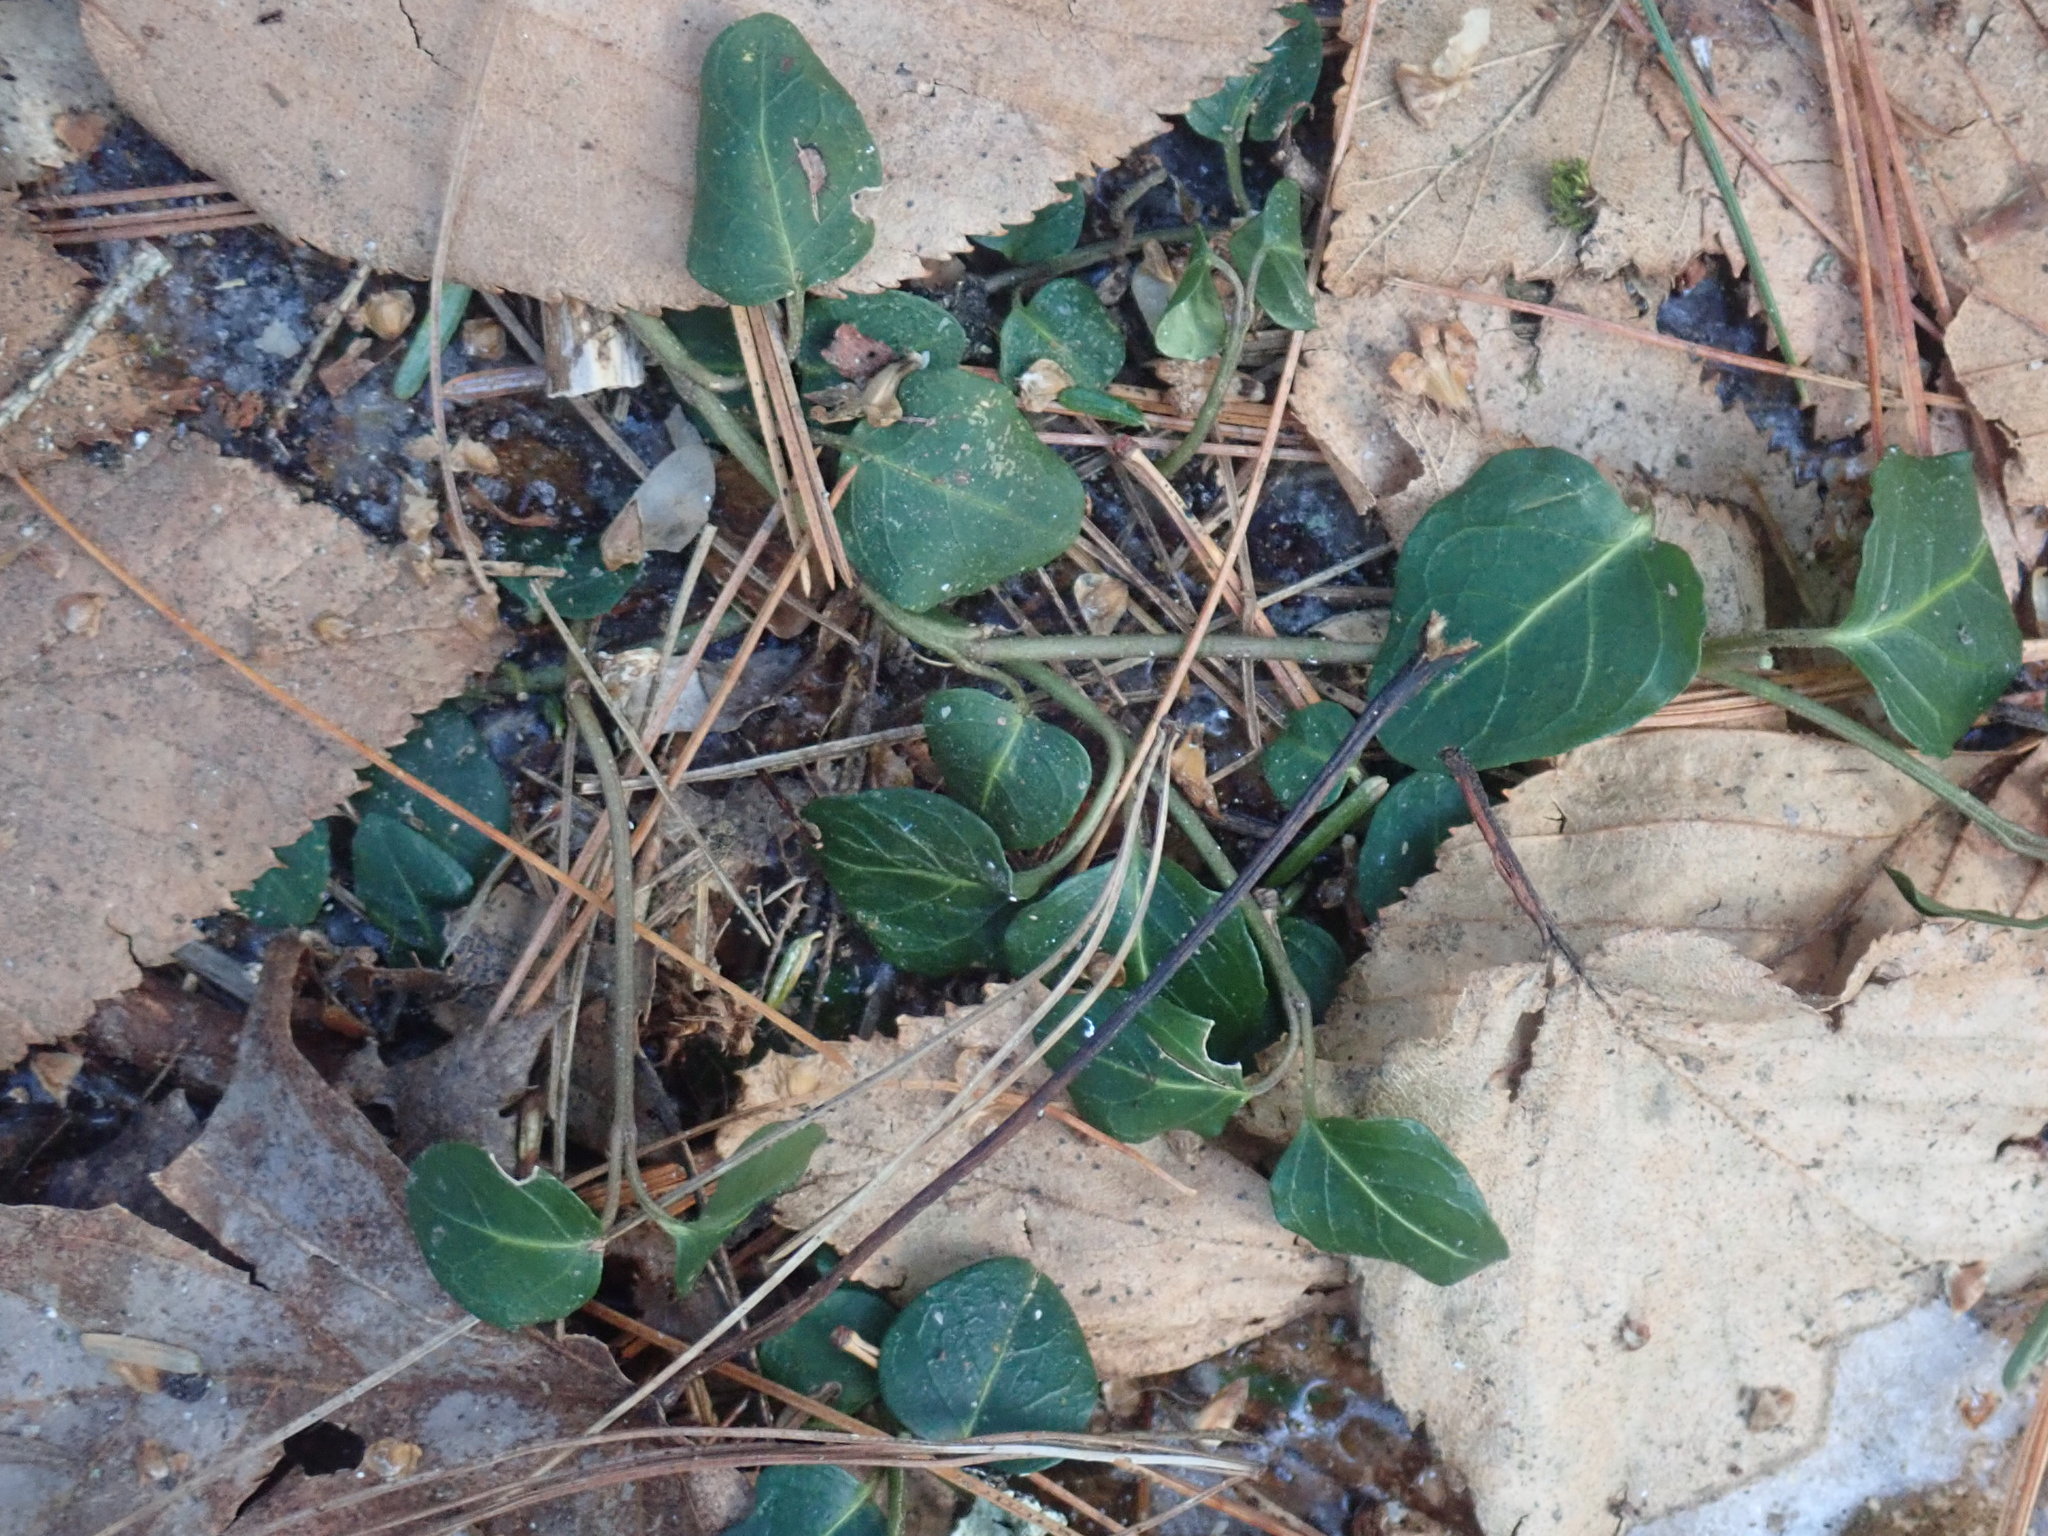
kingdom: Plantae
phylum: Tracheophyta
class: Magnoliopsida
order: Gentianales
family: Rubiaceae
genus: Mitchella
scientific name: Mitchella repens
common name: Partridge-berry
